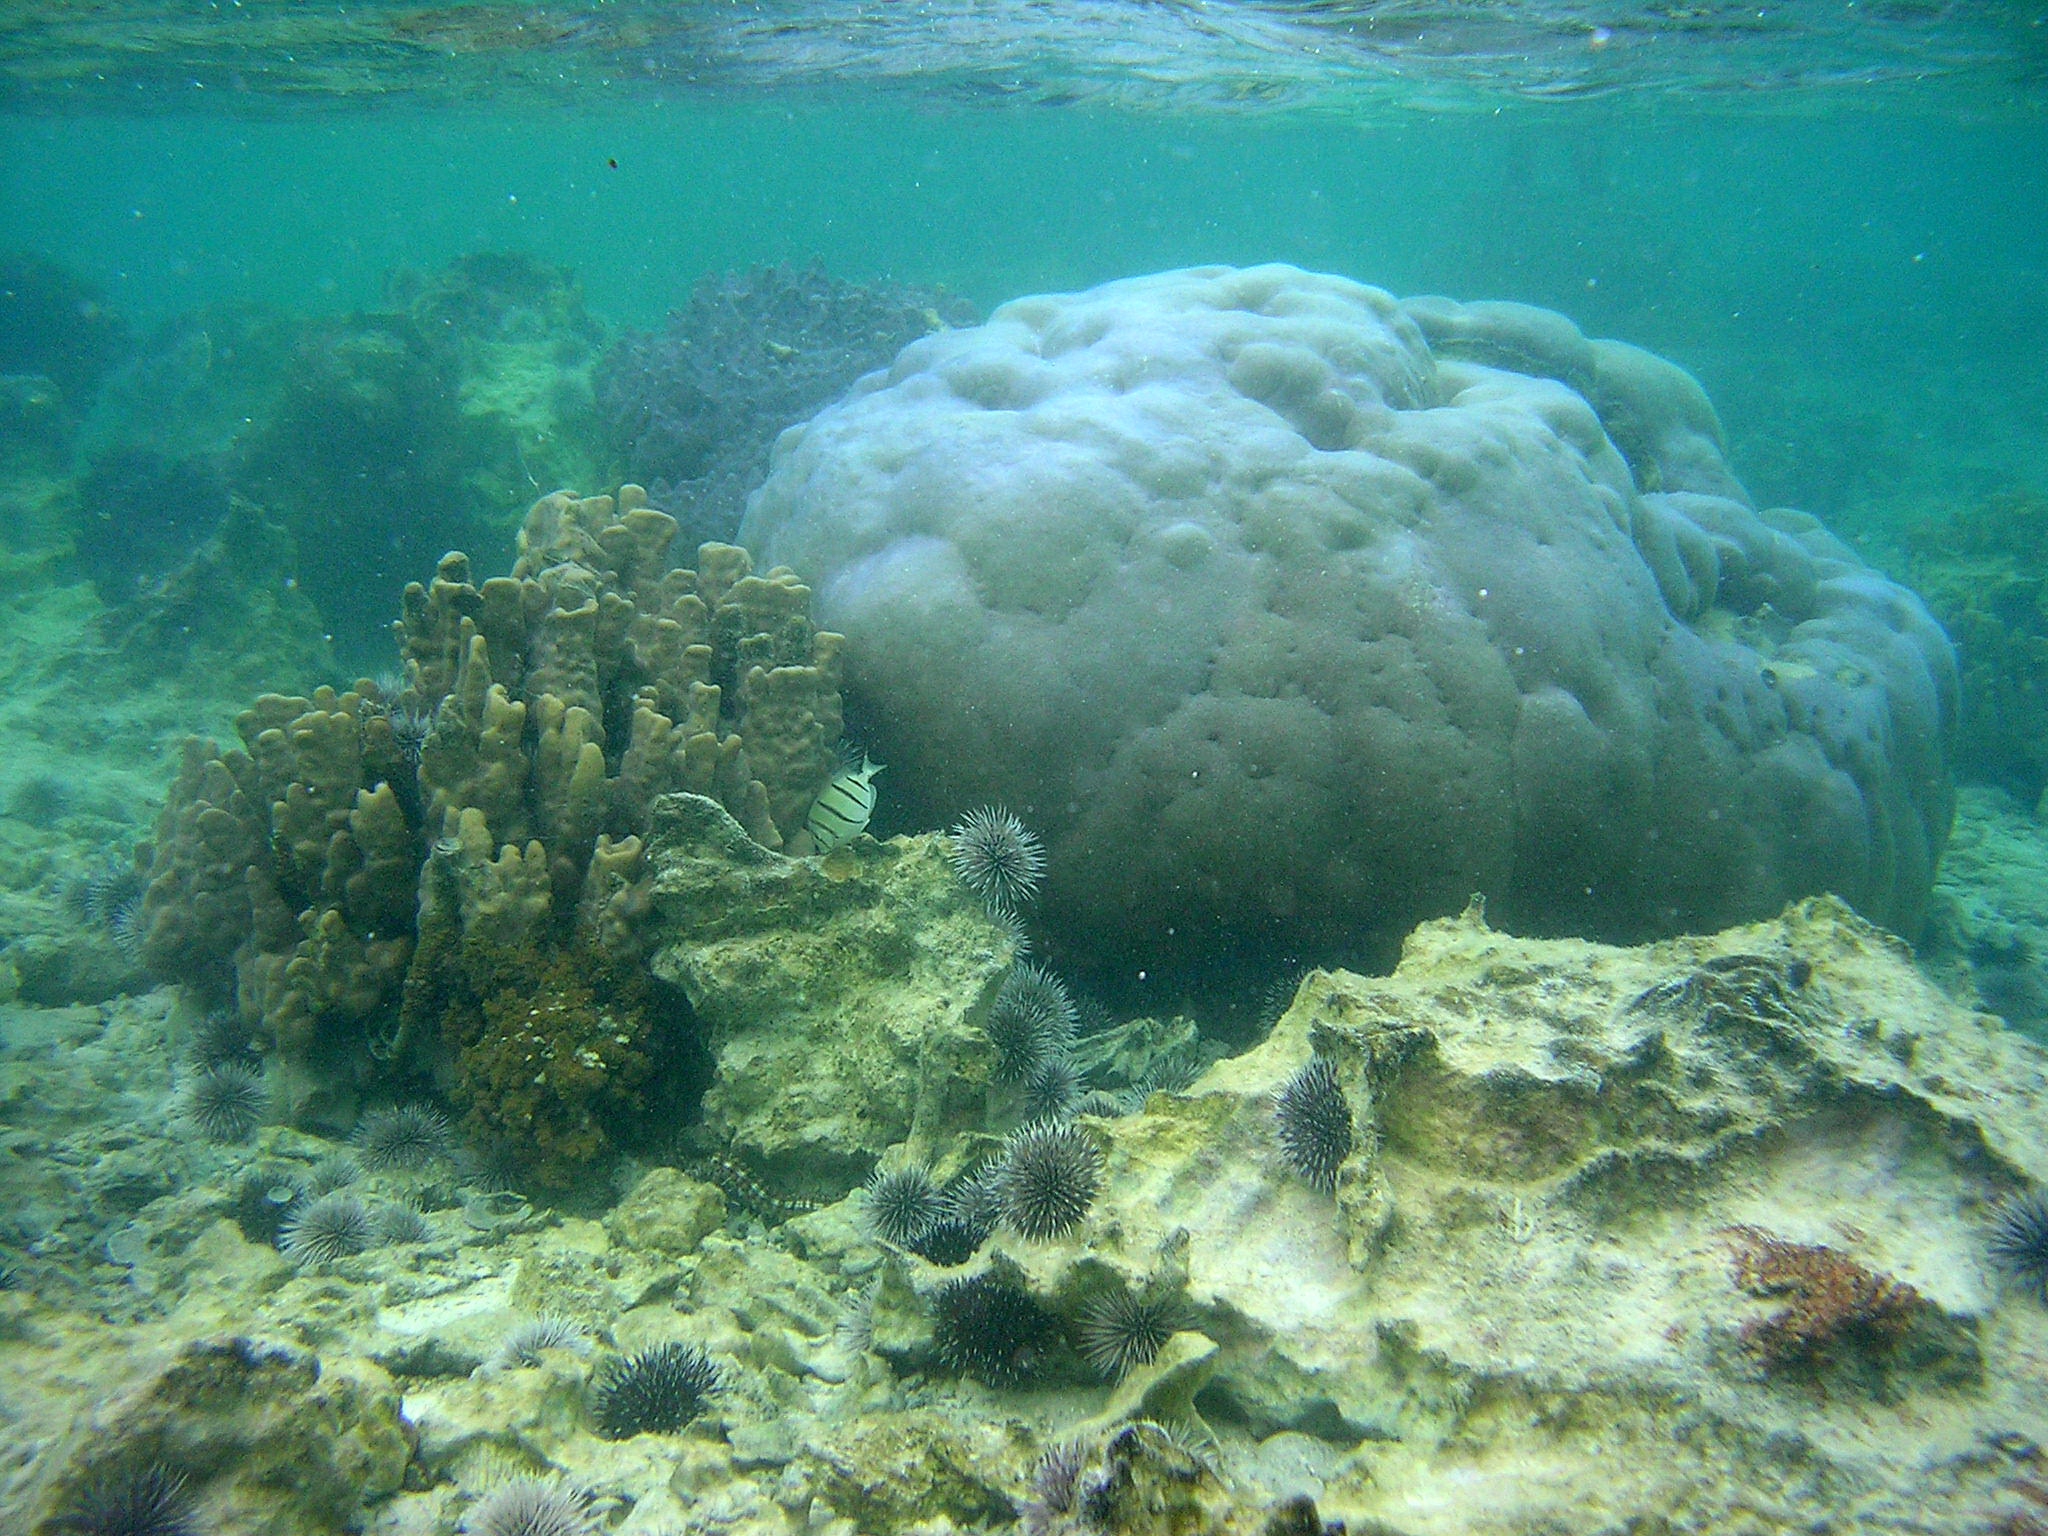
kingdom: Animalia
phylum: Chordata
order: Perciformes
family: Acanthuridae
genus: Acanthurus
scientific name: Acanthurus triostegus
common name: Convict surgeonfish
